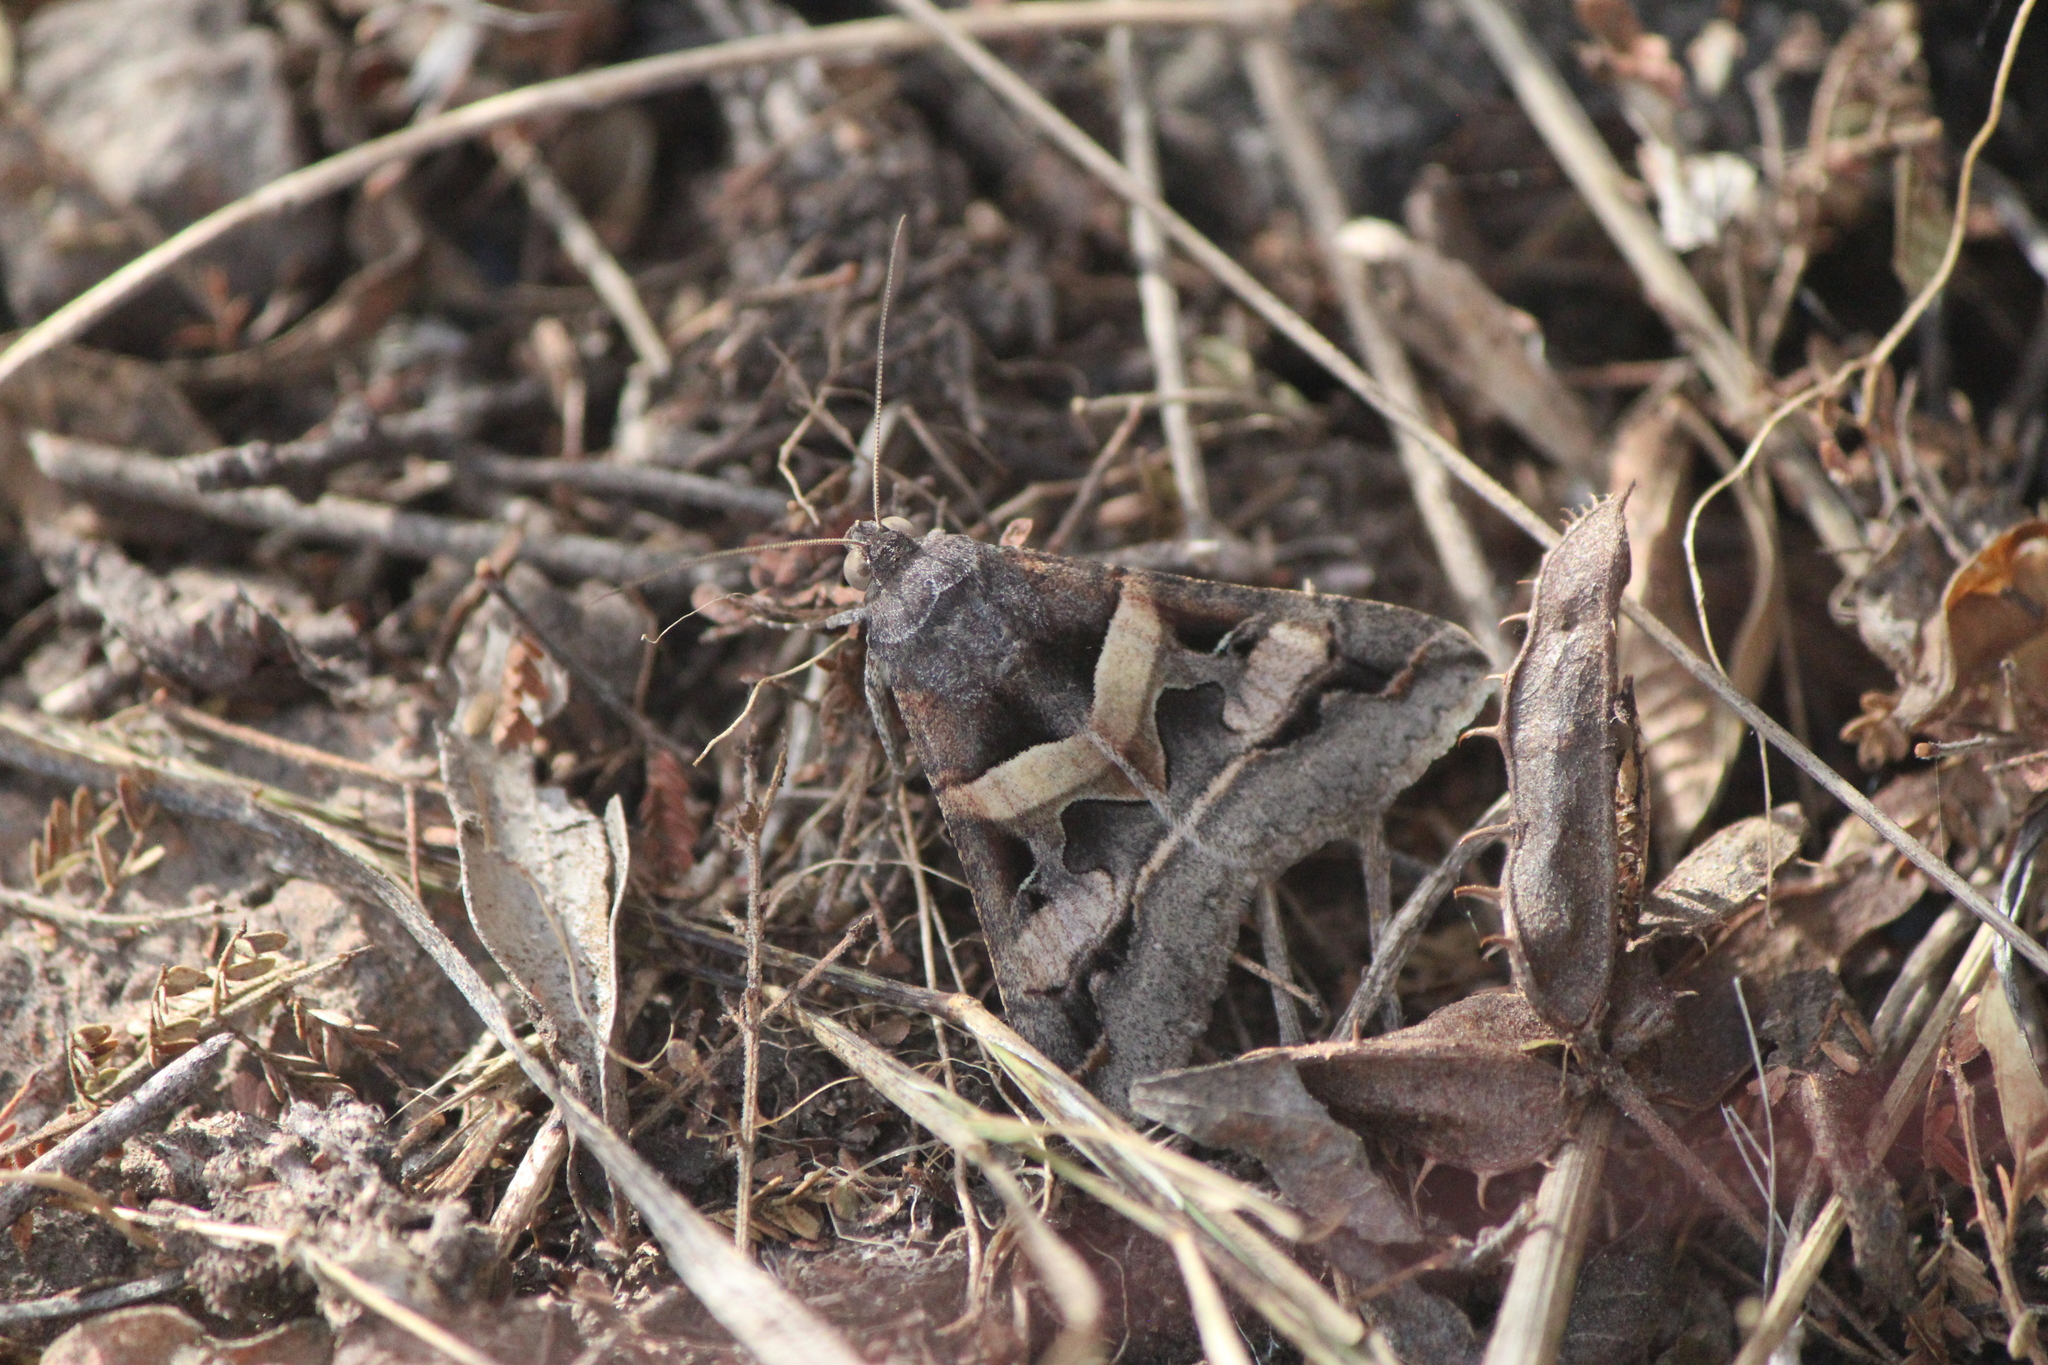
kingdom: Animalia
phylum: Arthropoda
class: Insecta
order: Lepidoptera
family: Erebidae
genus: Melipotis
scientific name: Melipotis perpendicularis
